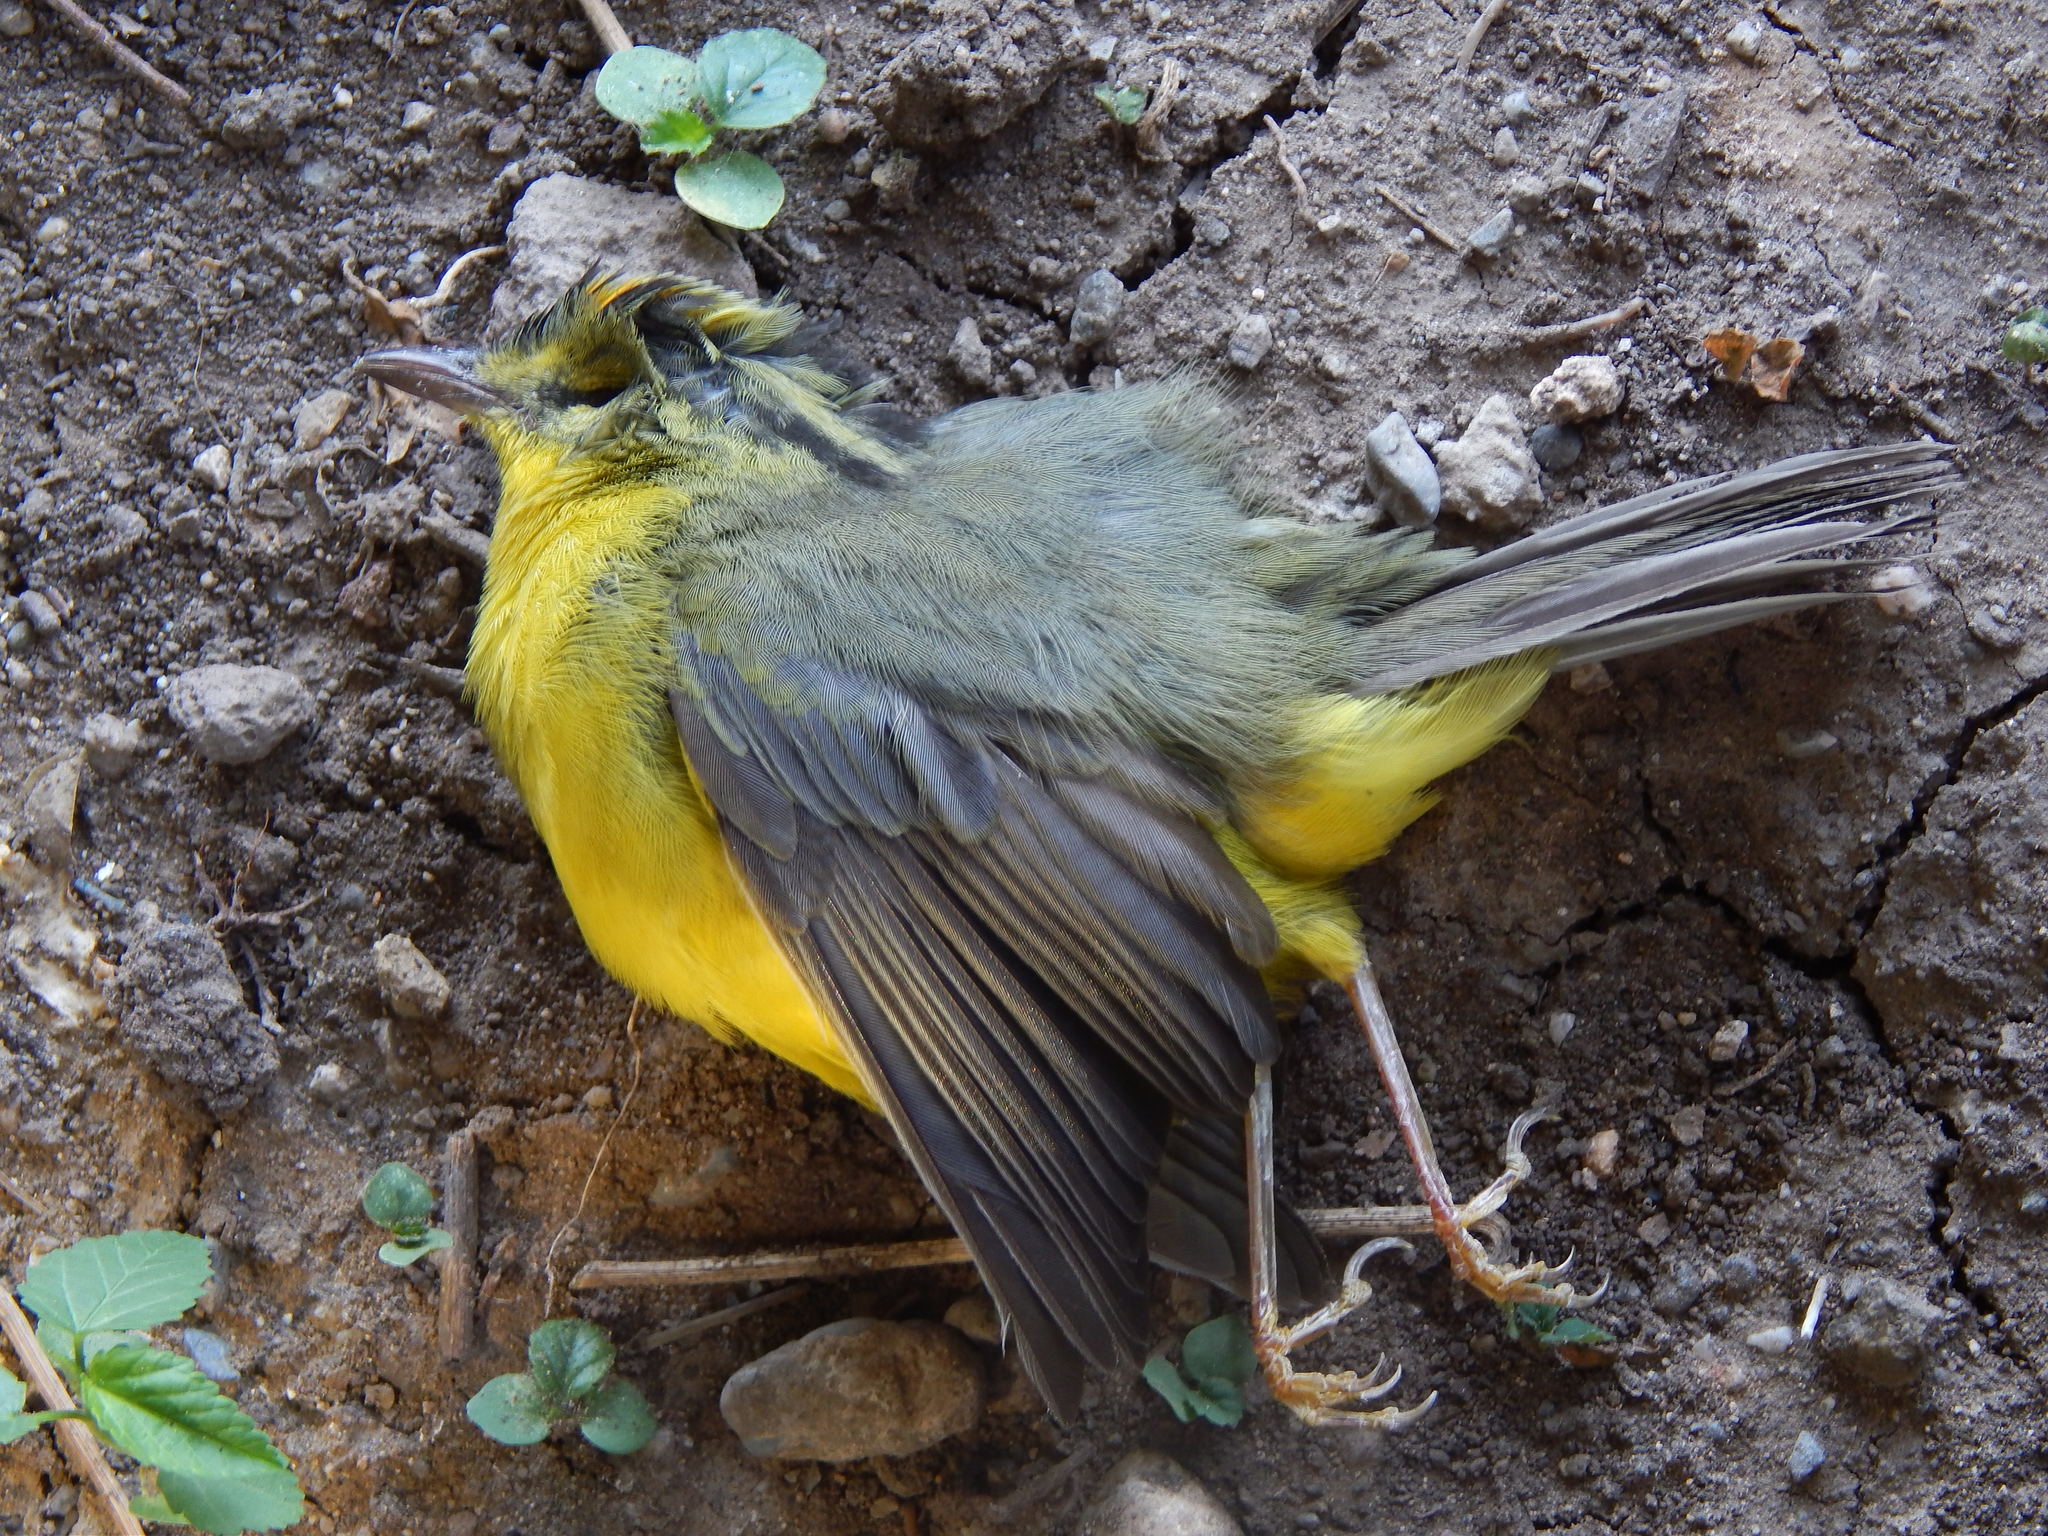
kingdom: Animalia
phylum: Chordata
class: Aves
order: Passeriformes
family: Parulidae
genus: Basileuterus
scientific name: Basileuterus culicivorus
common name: Golden-crowned warbler
